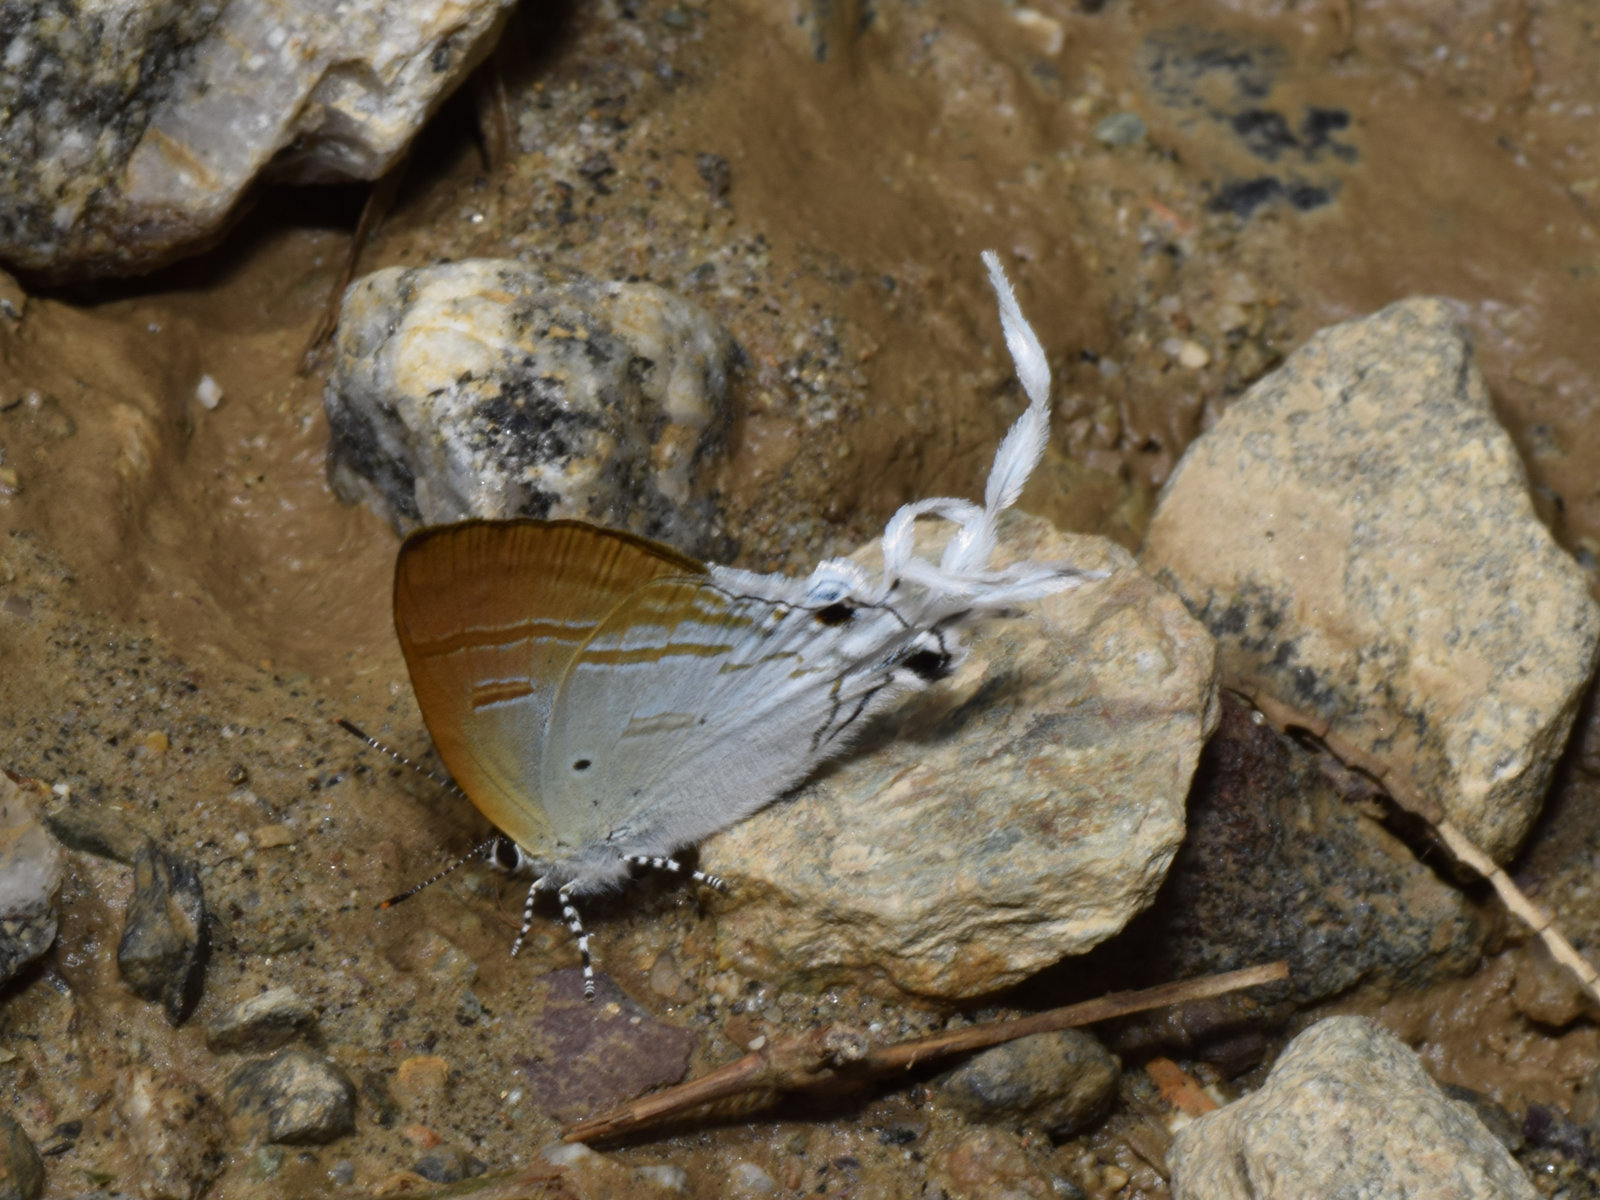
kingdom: Animalia
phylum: Arthropoda
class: Insecta
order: Lepidoptera
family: Lycaenidae
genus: Zeltus
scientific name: Zeltus amasa
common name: Fluffy tit
